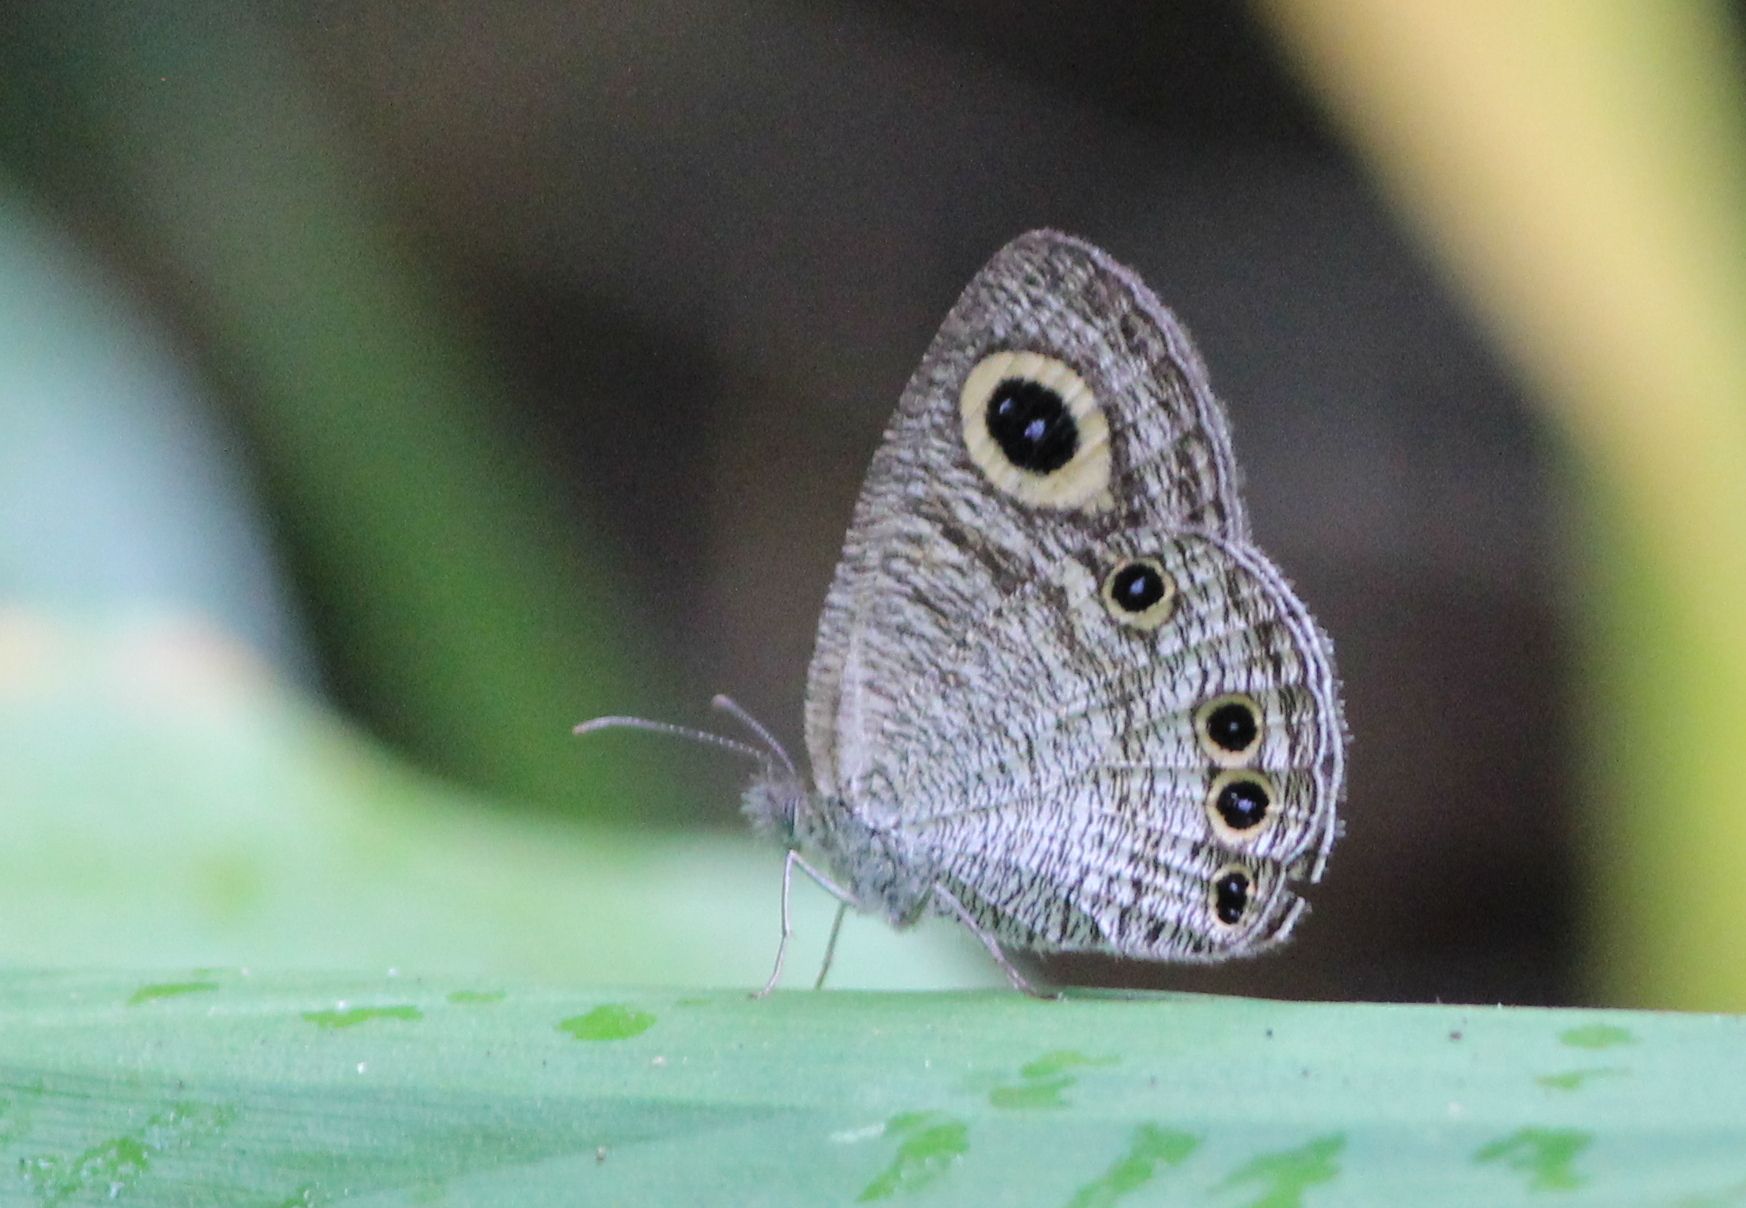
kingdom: Animalia
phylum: Arthropoda
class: Insecta
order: Lepidoptera
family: Nymphalidae
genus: Ypthima
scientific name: Ypthima huebneri
